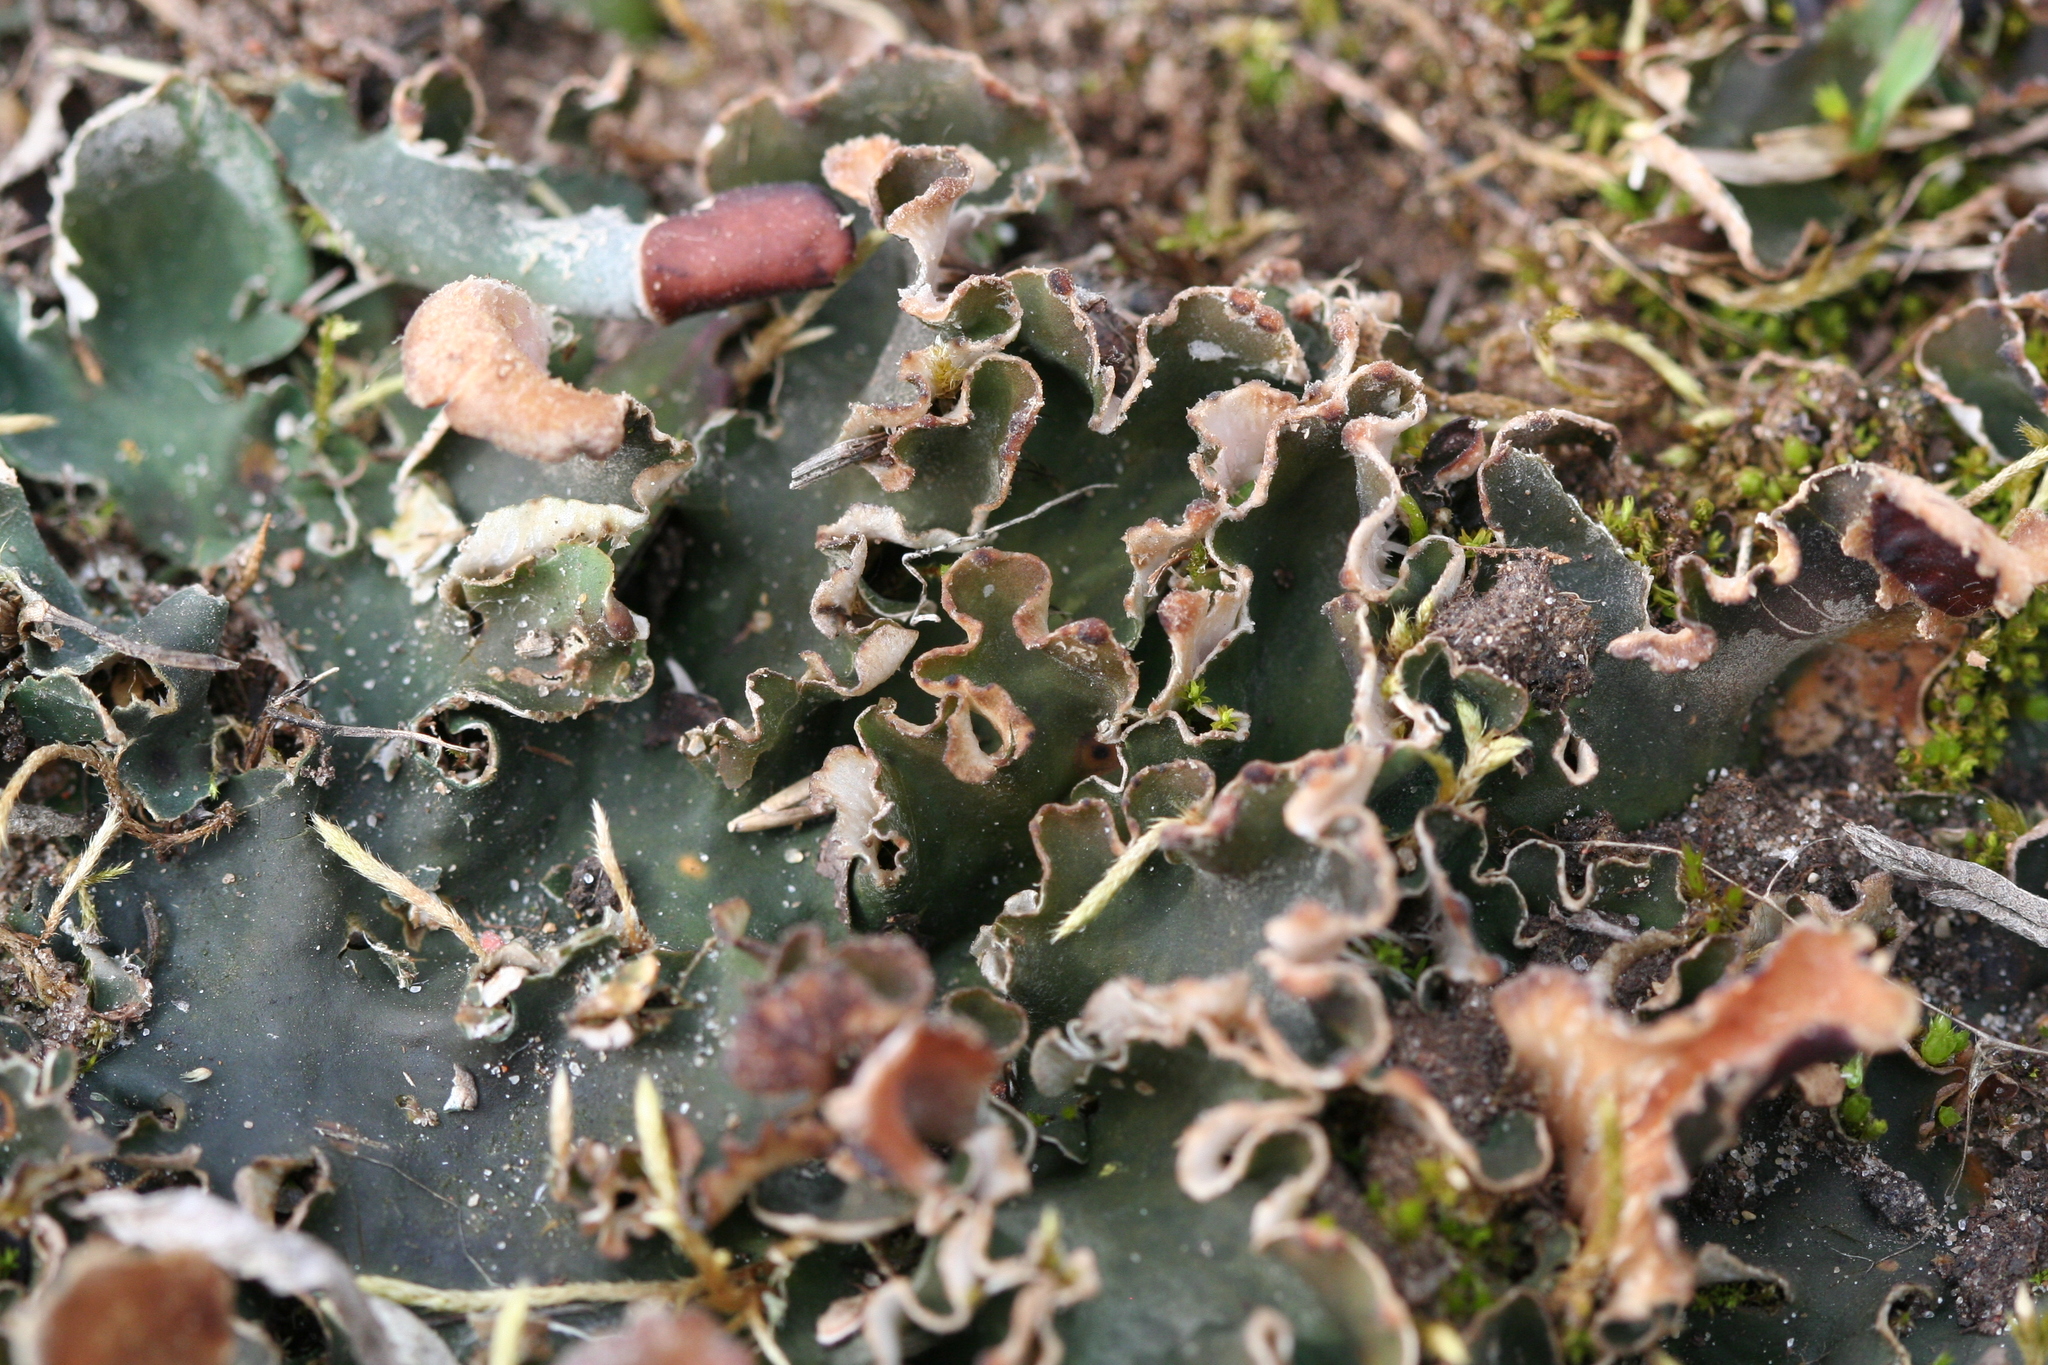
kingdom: Fungi
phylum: Ascomycota
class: Lecanoromycetes
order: Peltigerales
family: Peltigeraceae
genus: Peltigera
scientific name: Peltigera rufescens
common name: Field dog lichen
